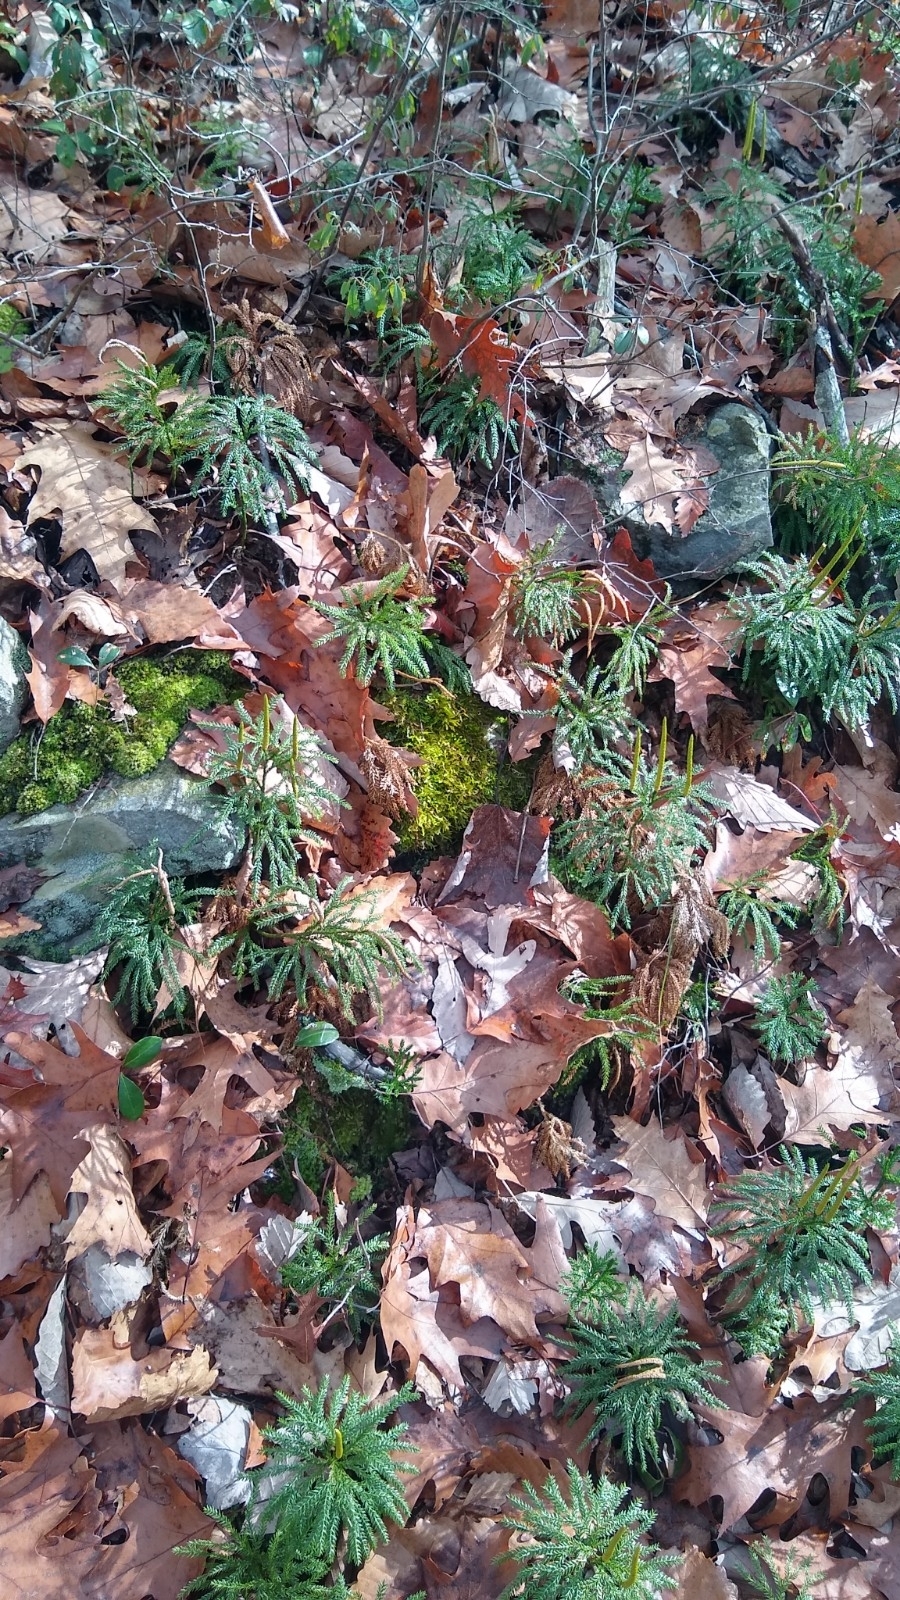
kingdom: Plantae
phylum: Tracheophyta
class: Lycopodiopsida
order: Lycopodiales
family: Lycopodiaceae
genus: Dendrolycopodium
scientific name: Dendrolycopodium obscurum
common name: Common ground-pine
